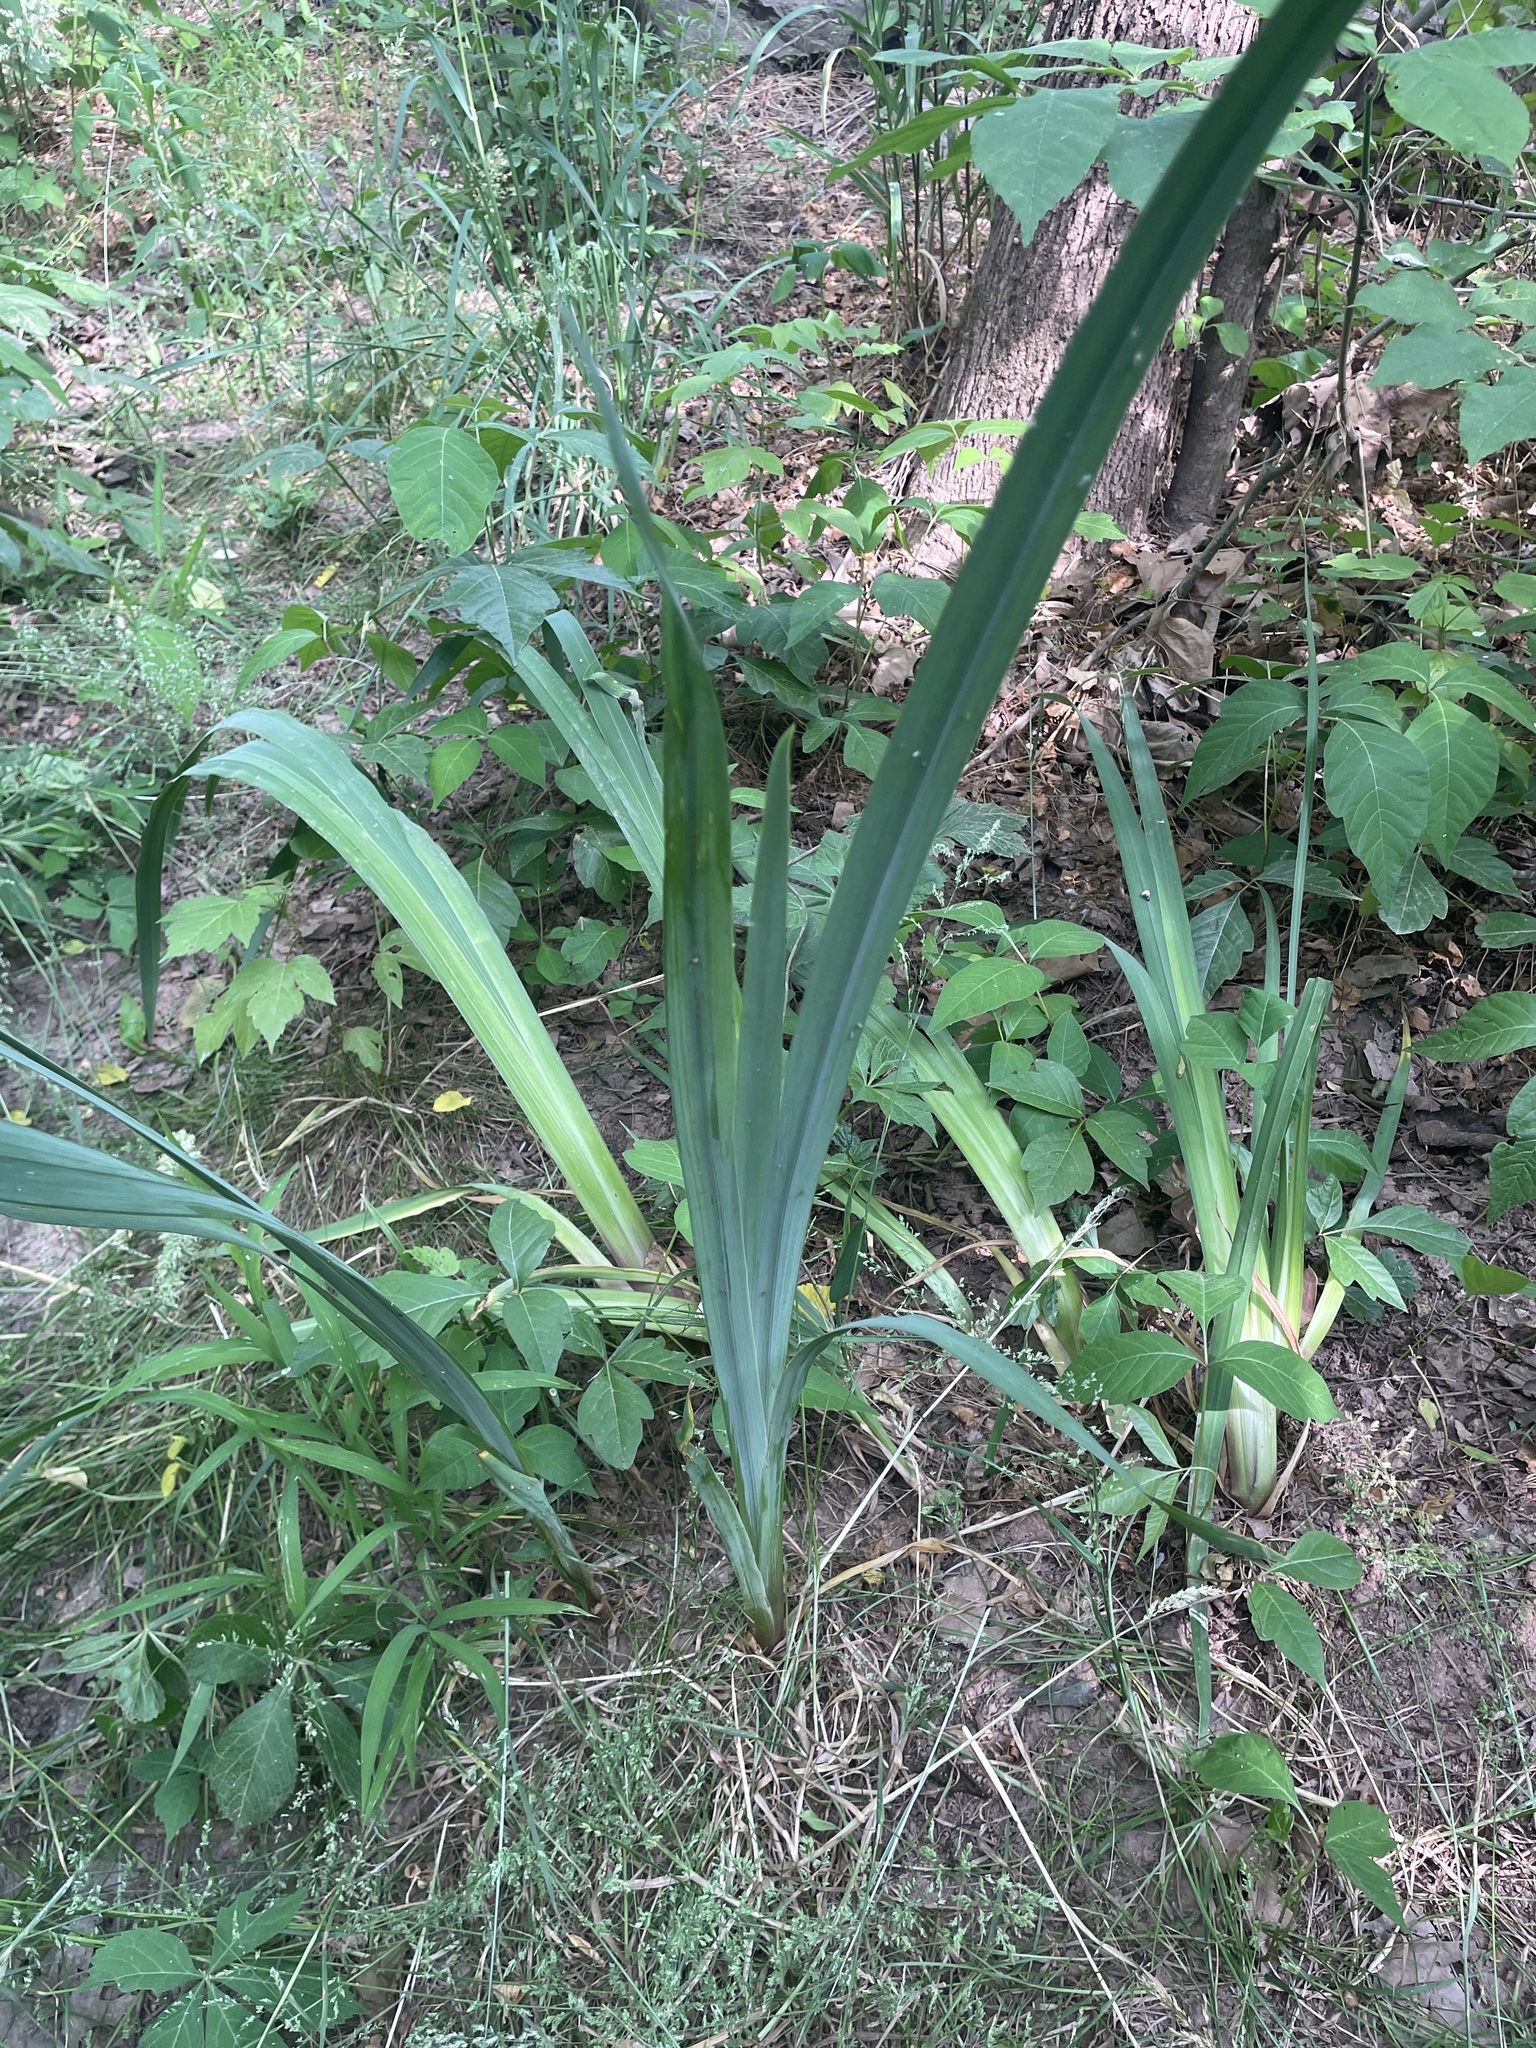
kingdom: Plantae
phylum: Tracheophyta
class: Liliopsida
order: Asparagales
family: Iridaceae
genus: Iris
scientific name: Iris pseudacorus
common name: Yellow flag
